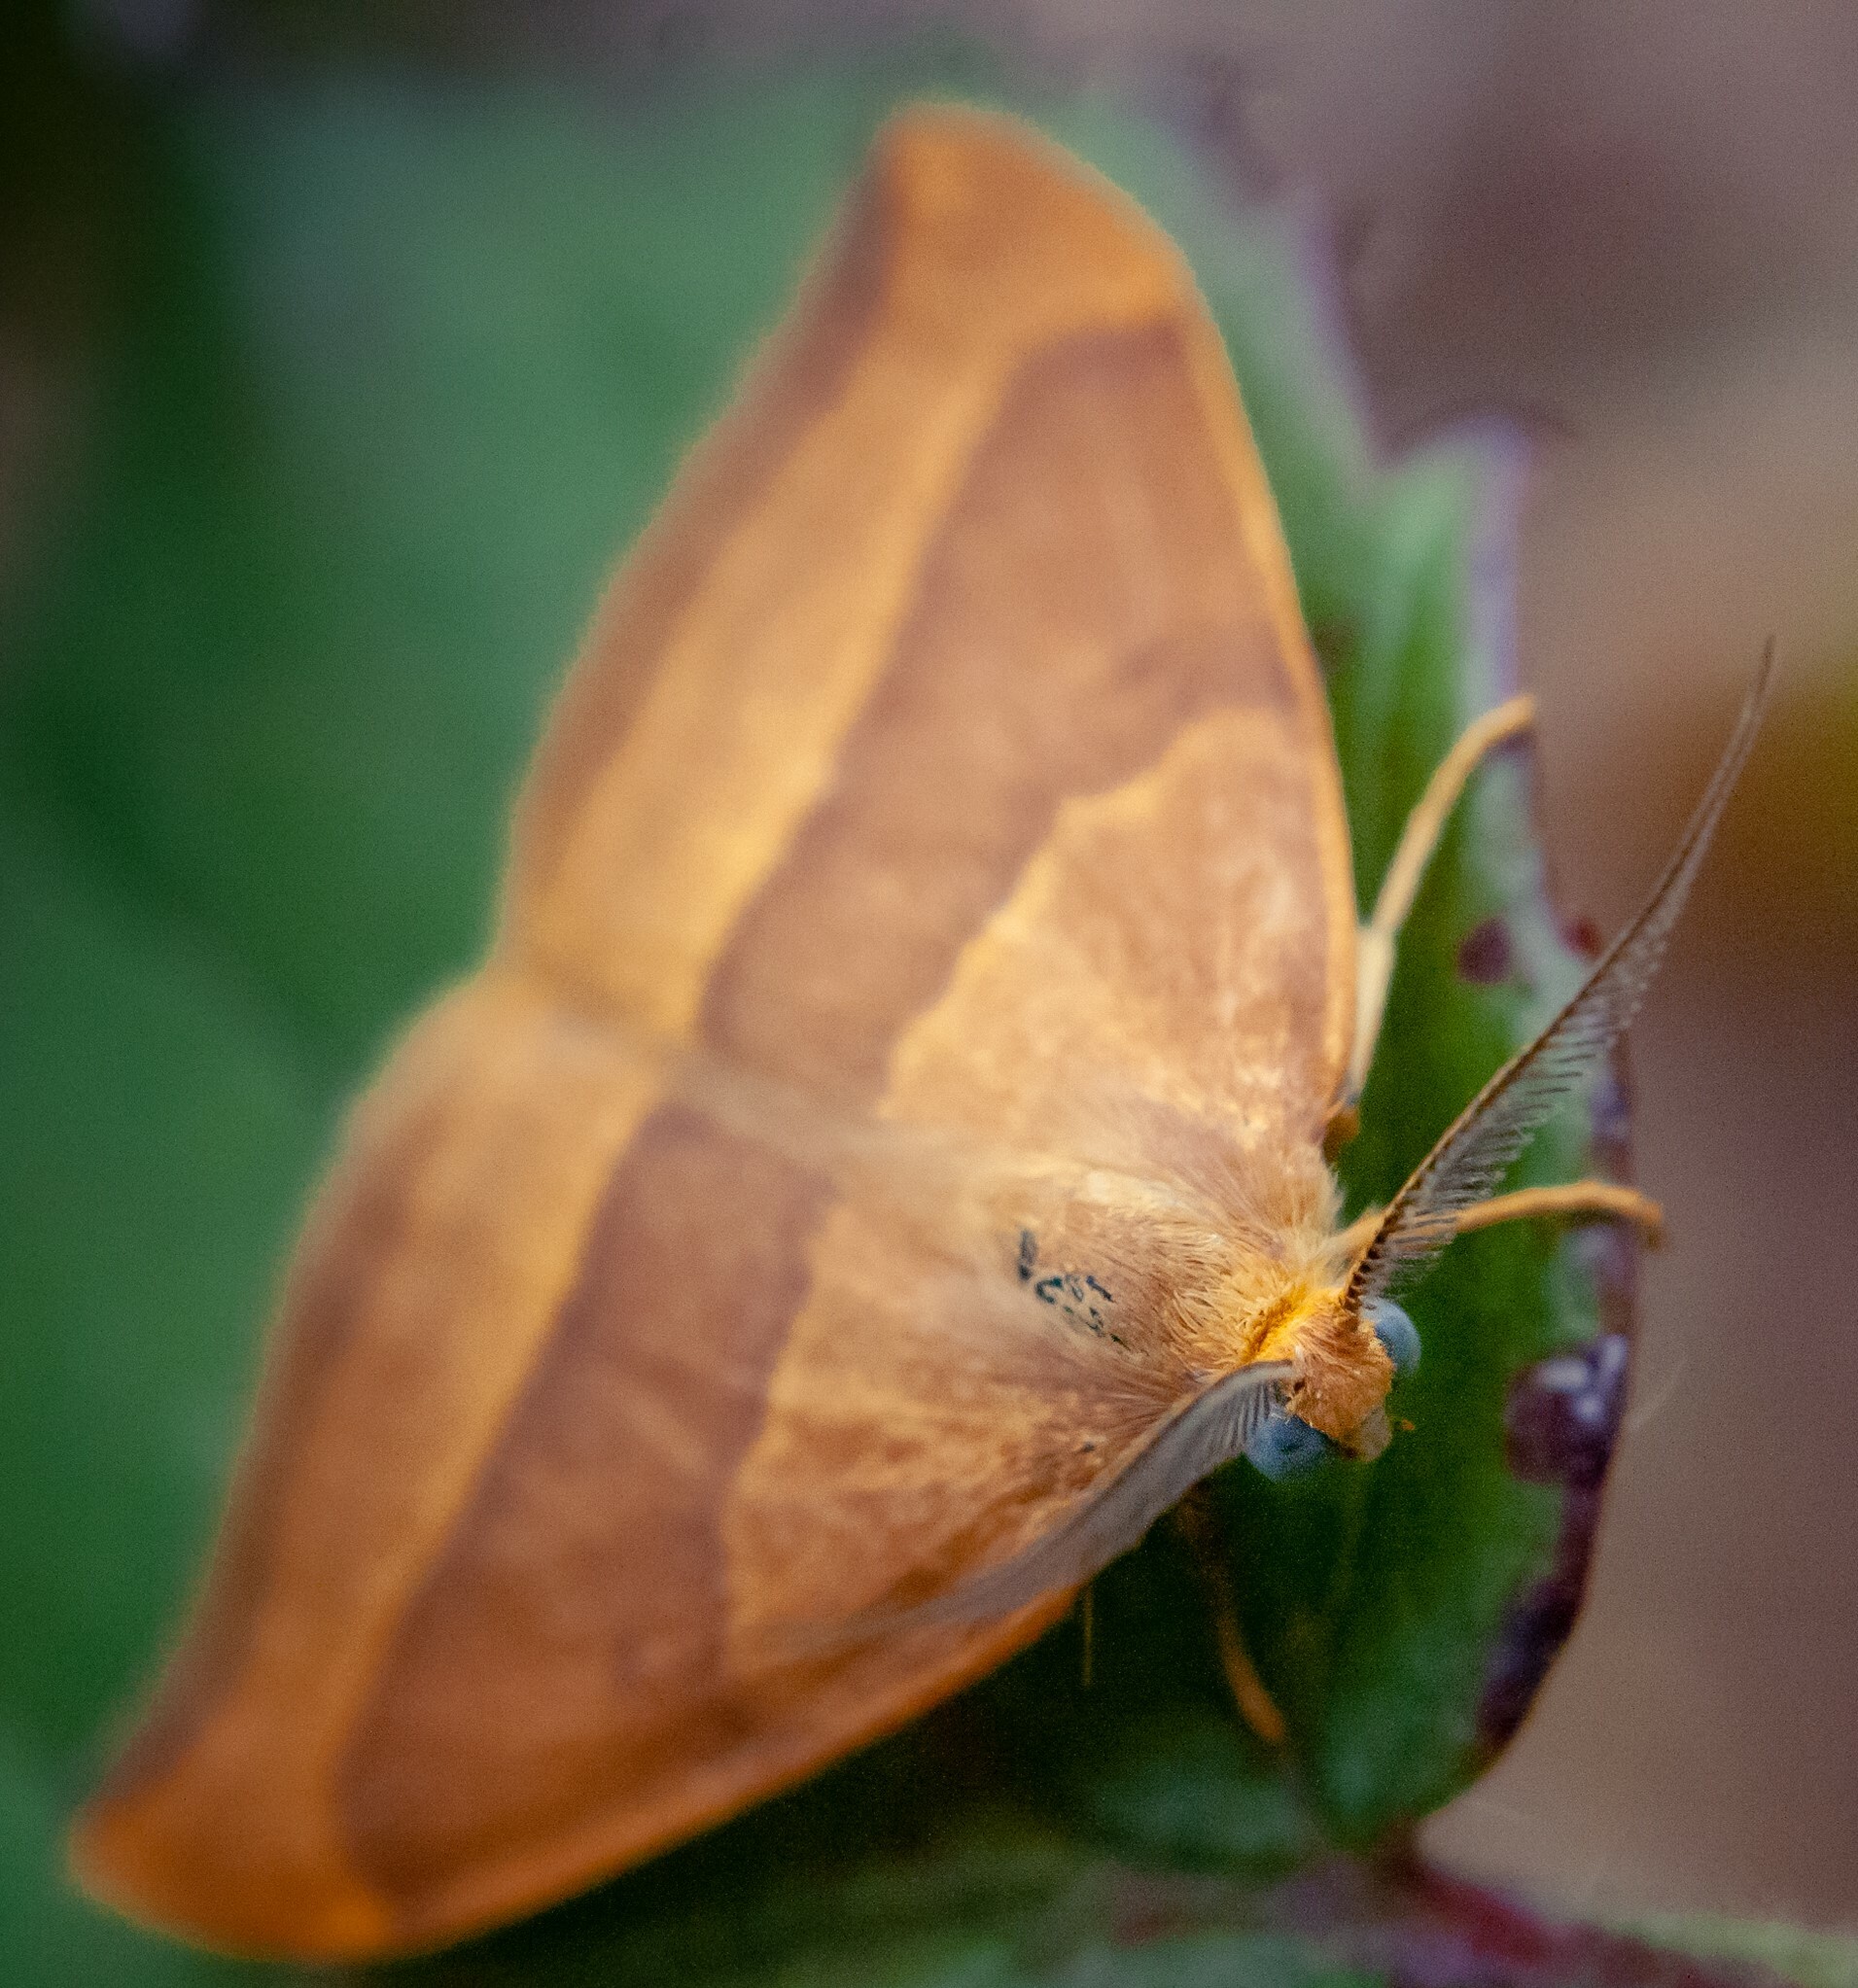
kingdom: Animalia
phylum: Arthropoda
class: Insecta
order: Lepidoptera
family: Drepanidae
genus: Watsonalla
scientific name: Watsonalla cultraria
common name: Barred hook-tip
